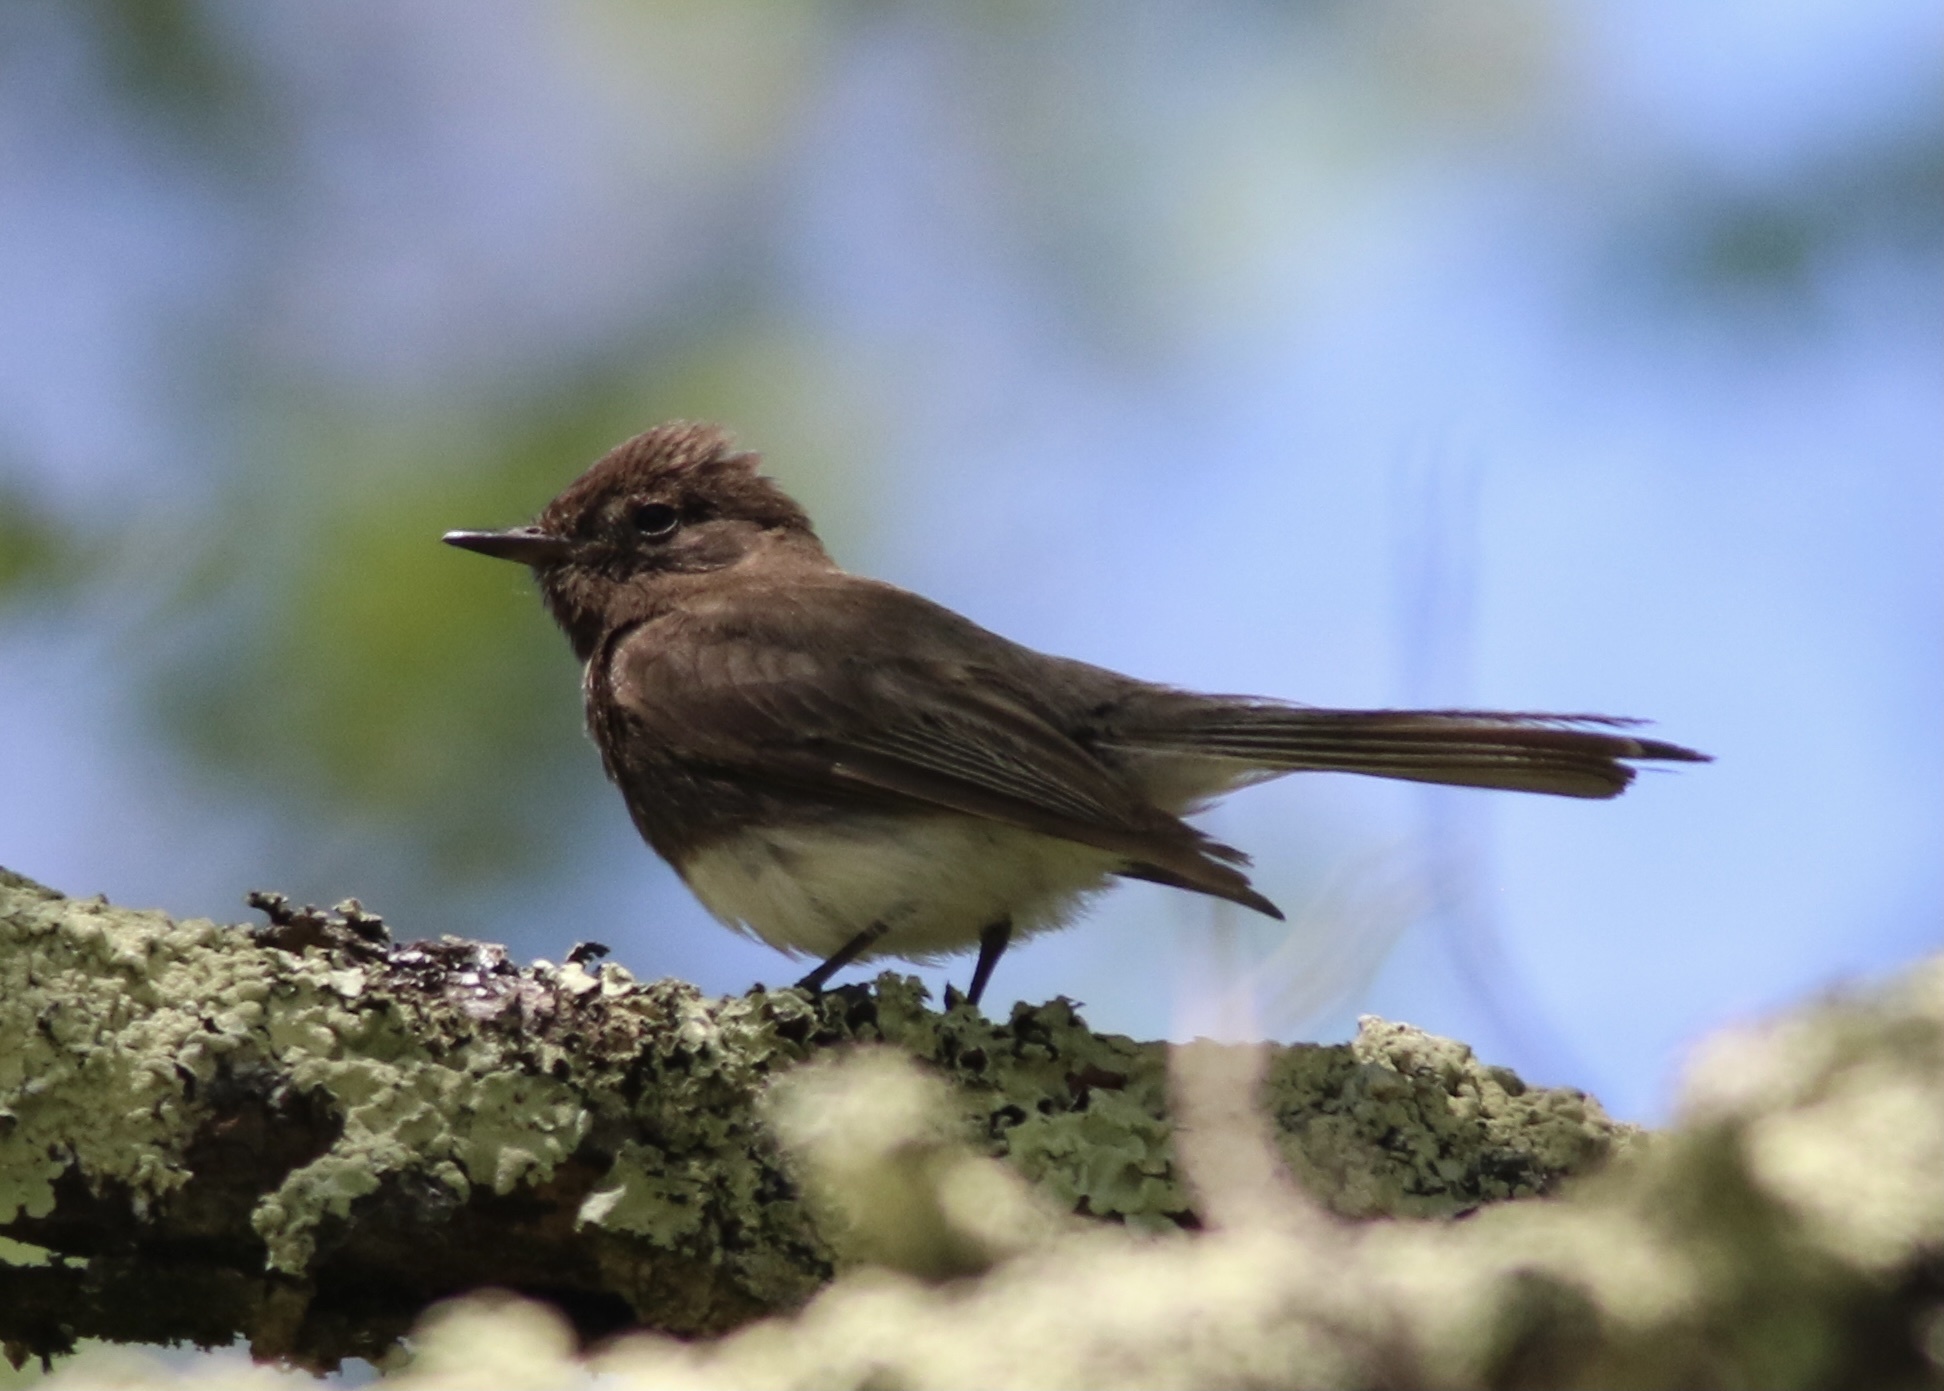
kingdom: Animalia
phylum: Chordata
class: Aves
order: Passeriformes
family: Tyrannidae
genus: Sayornis
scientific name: Sayornis nigricans
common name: Black phoebe
